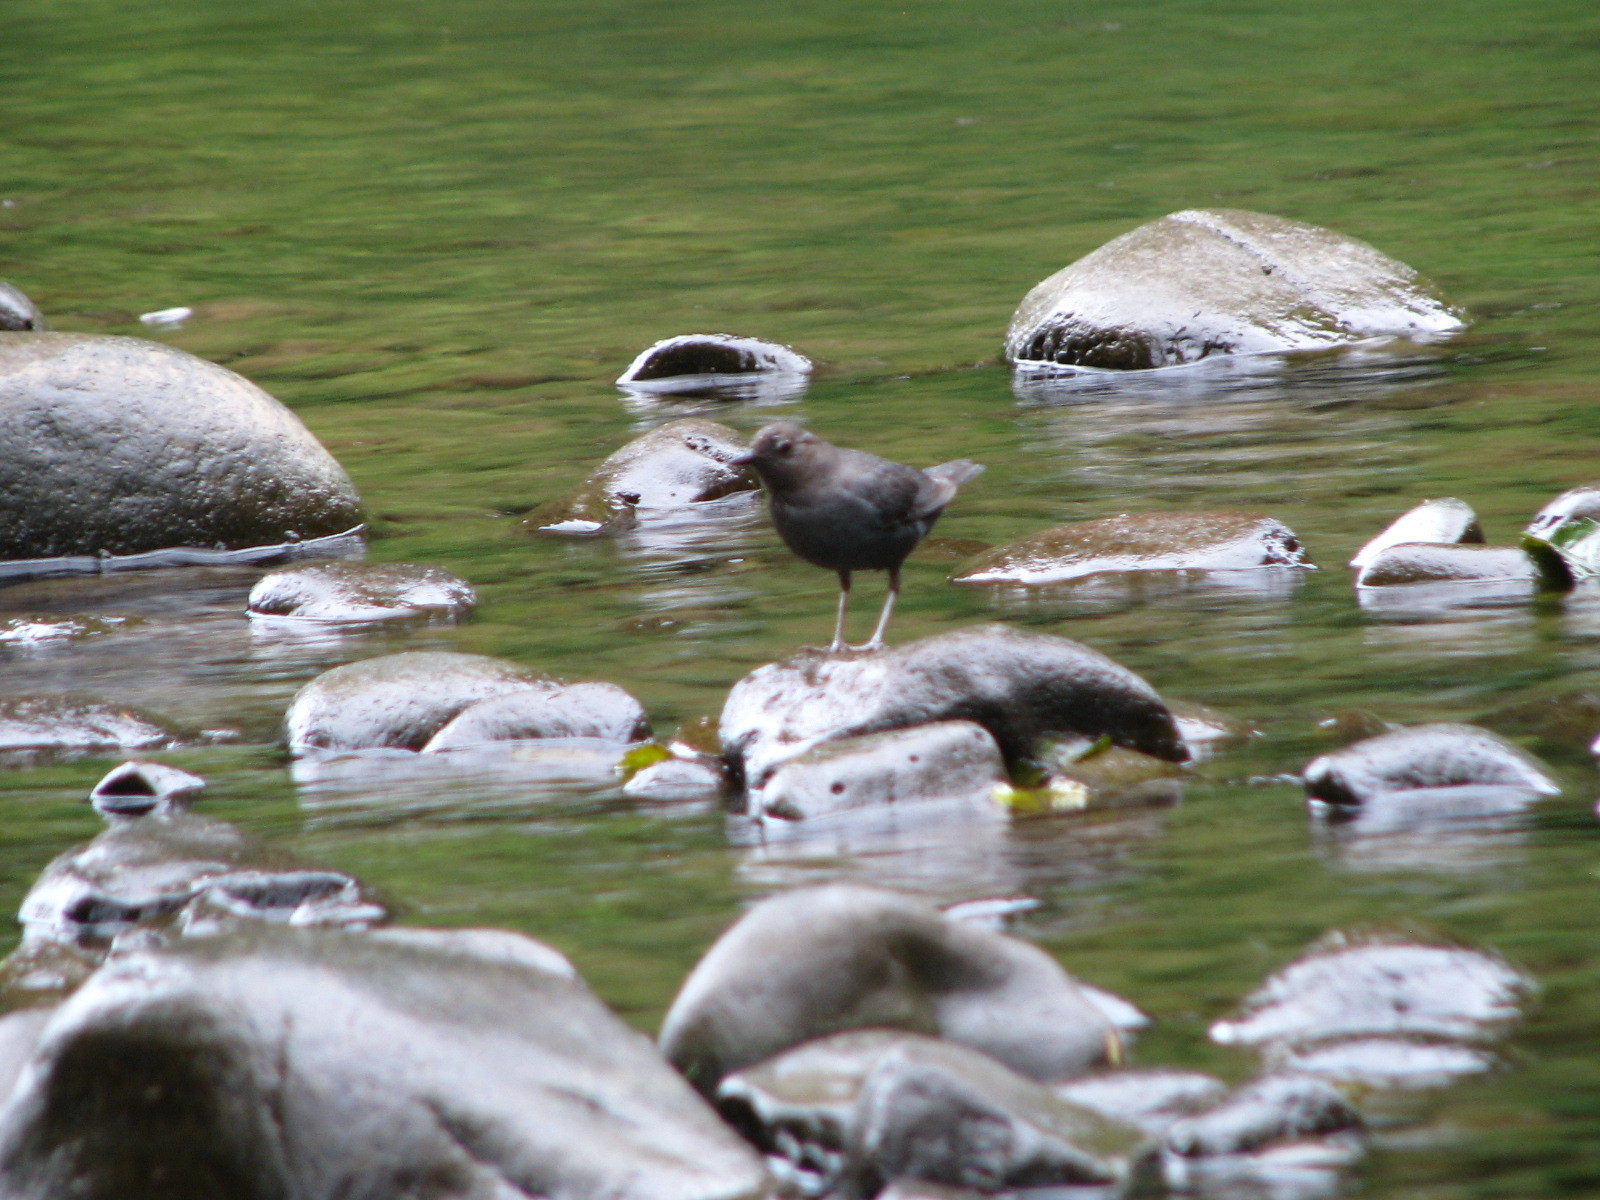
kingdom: Animalia
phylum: Chordata
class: Aves
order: Passeriformes
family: Cinclidae
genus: Cinclus
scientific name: Cinclus mexicanus
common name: American dipper
